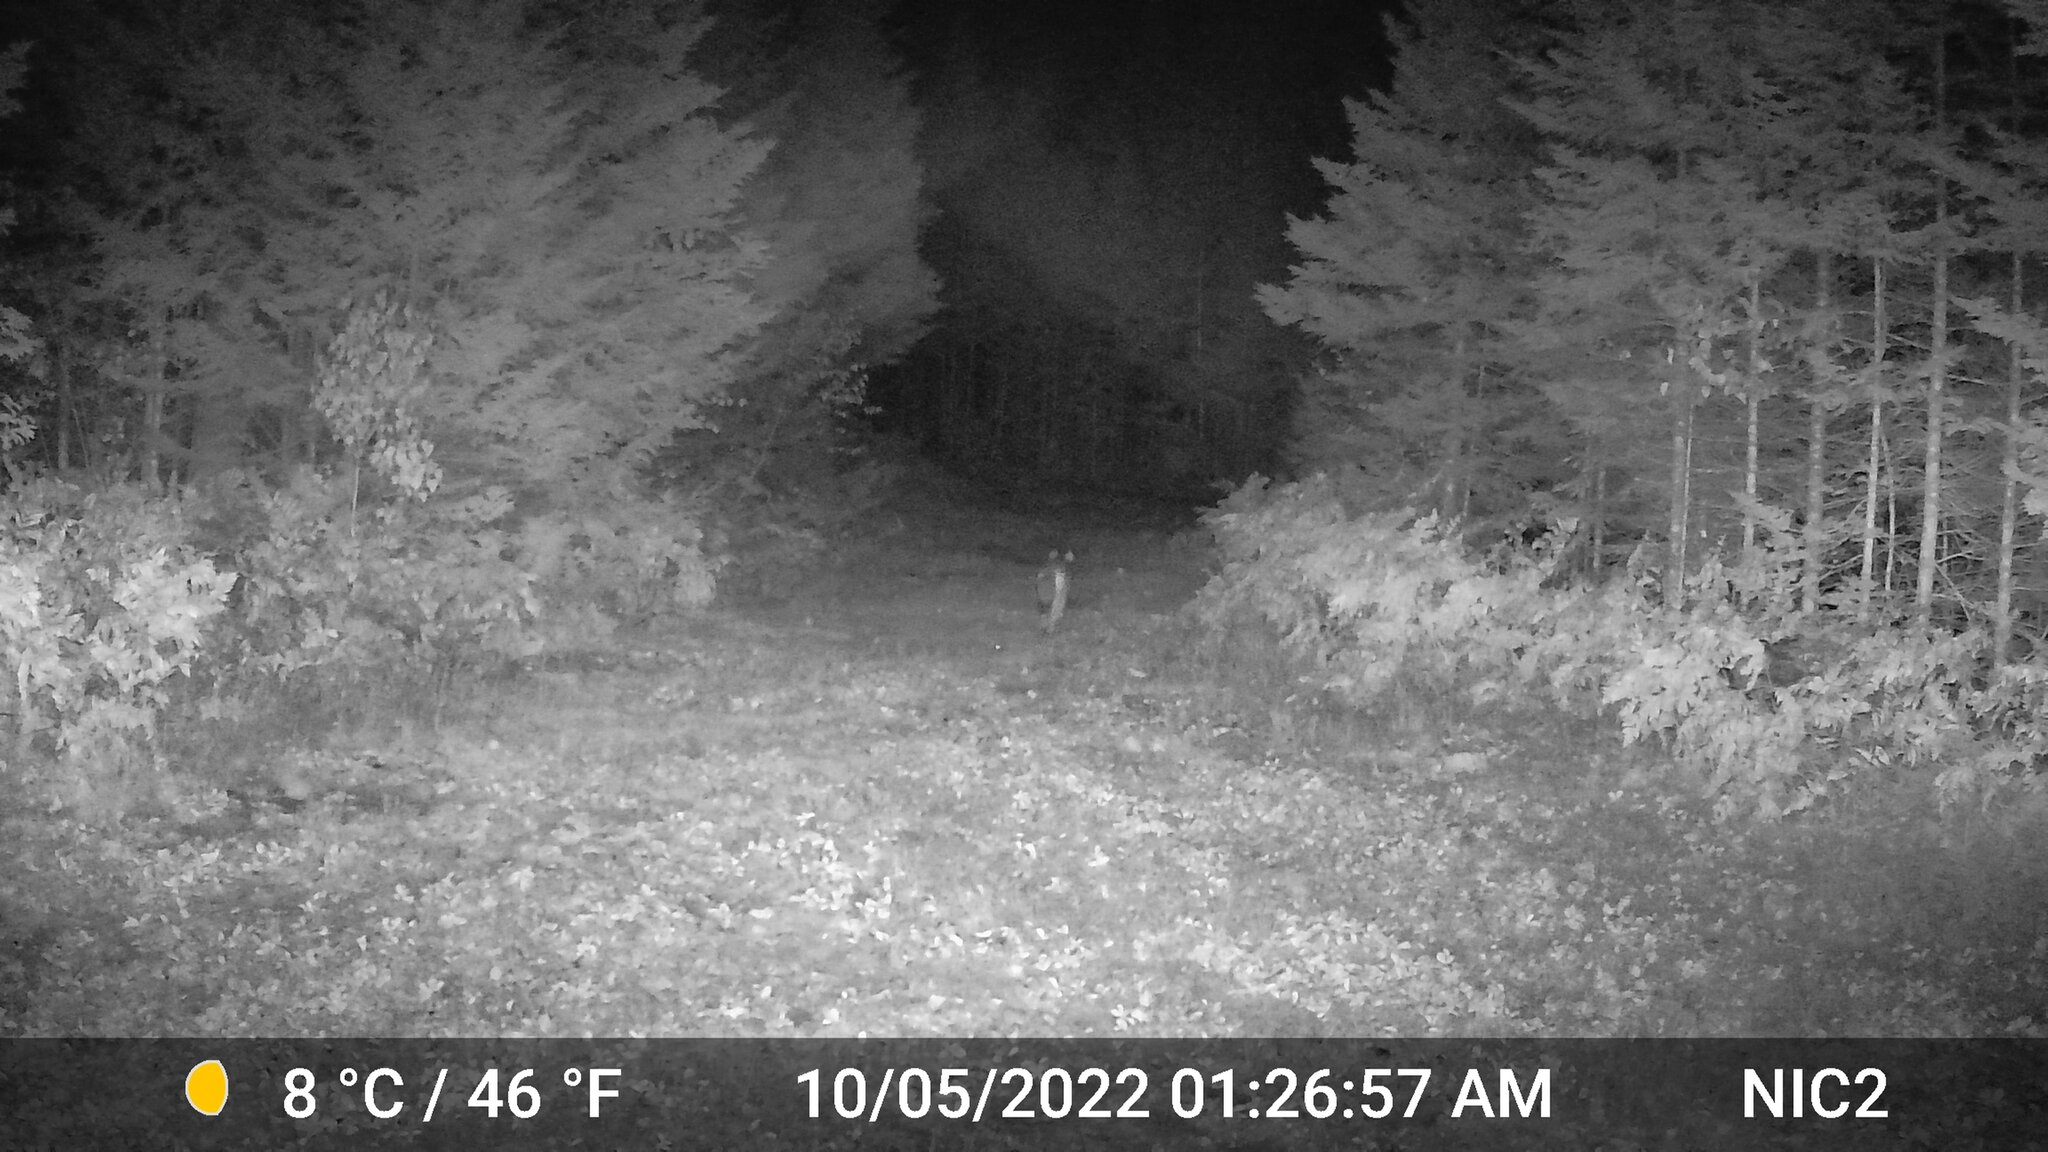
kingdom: Animalia
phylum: Chordata
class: Mammalia
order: Carnivora
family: Canidae
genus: Canis
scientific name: Canis latrans
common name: Coyote
